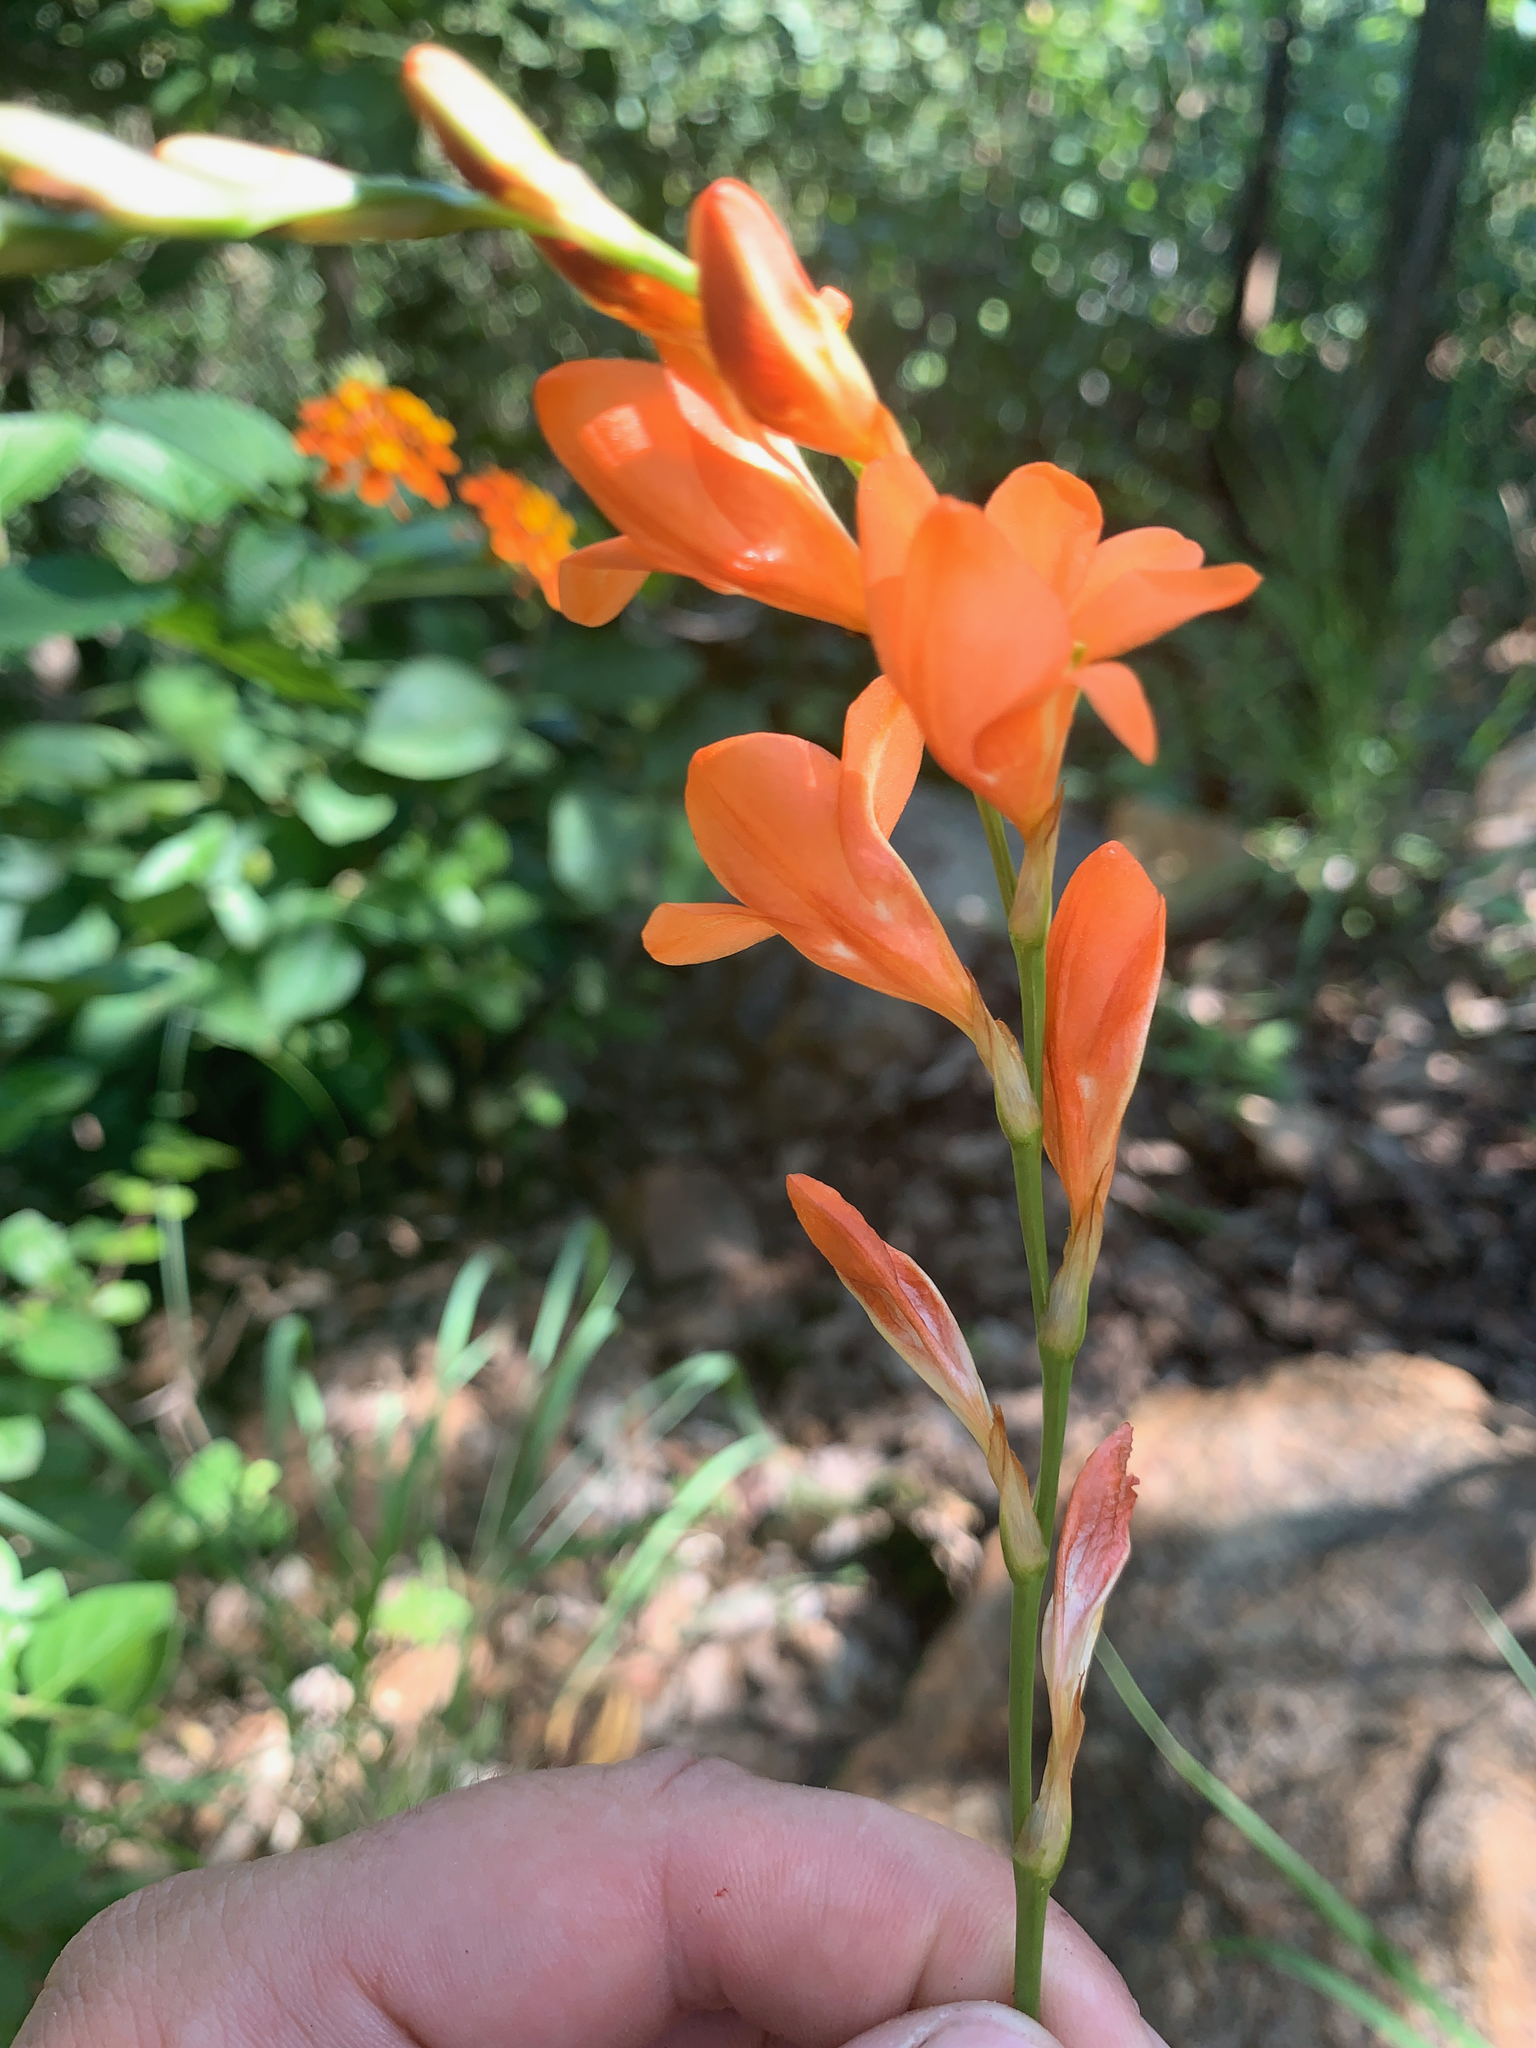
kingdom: Plantae
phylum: Tracheophyta
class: Liliopsida
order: Asparagales
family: Iridaceae
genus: Tritonia
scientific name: Tritonia nelsonii
